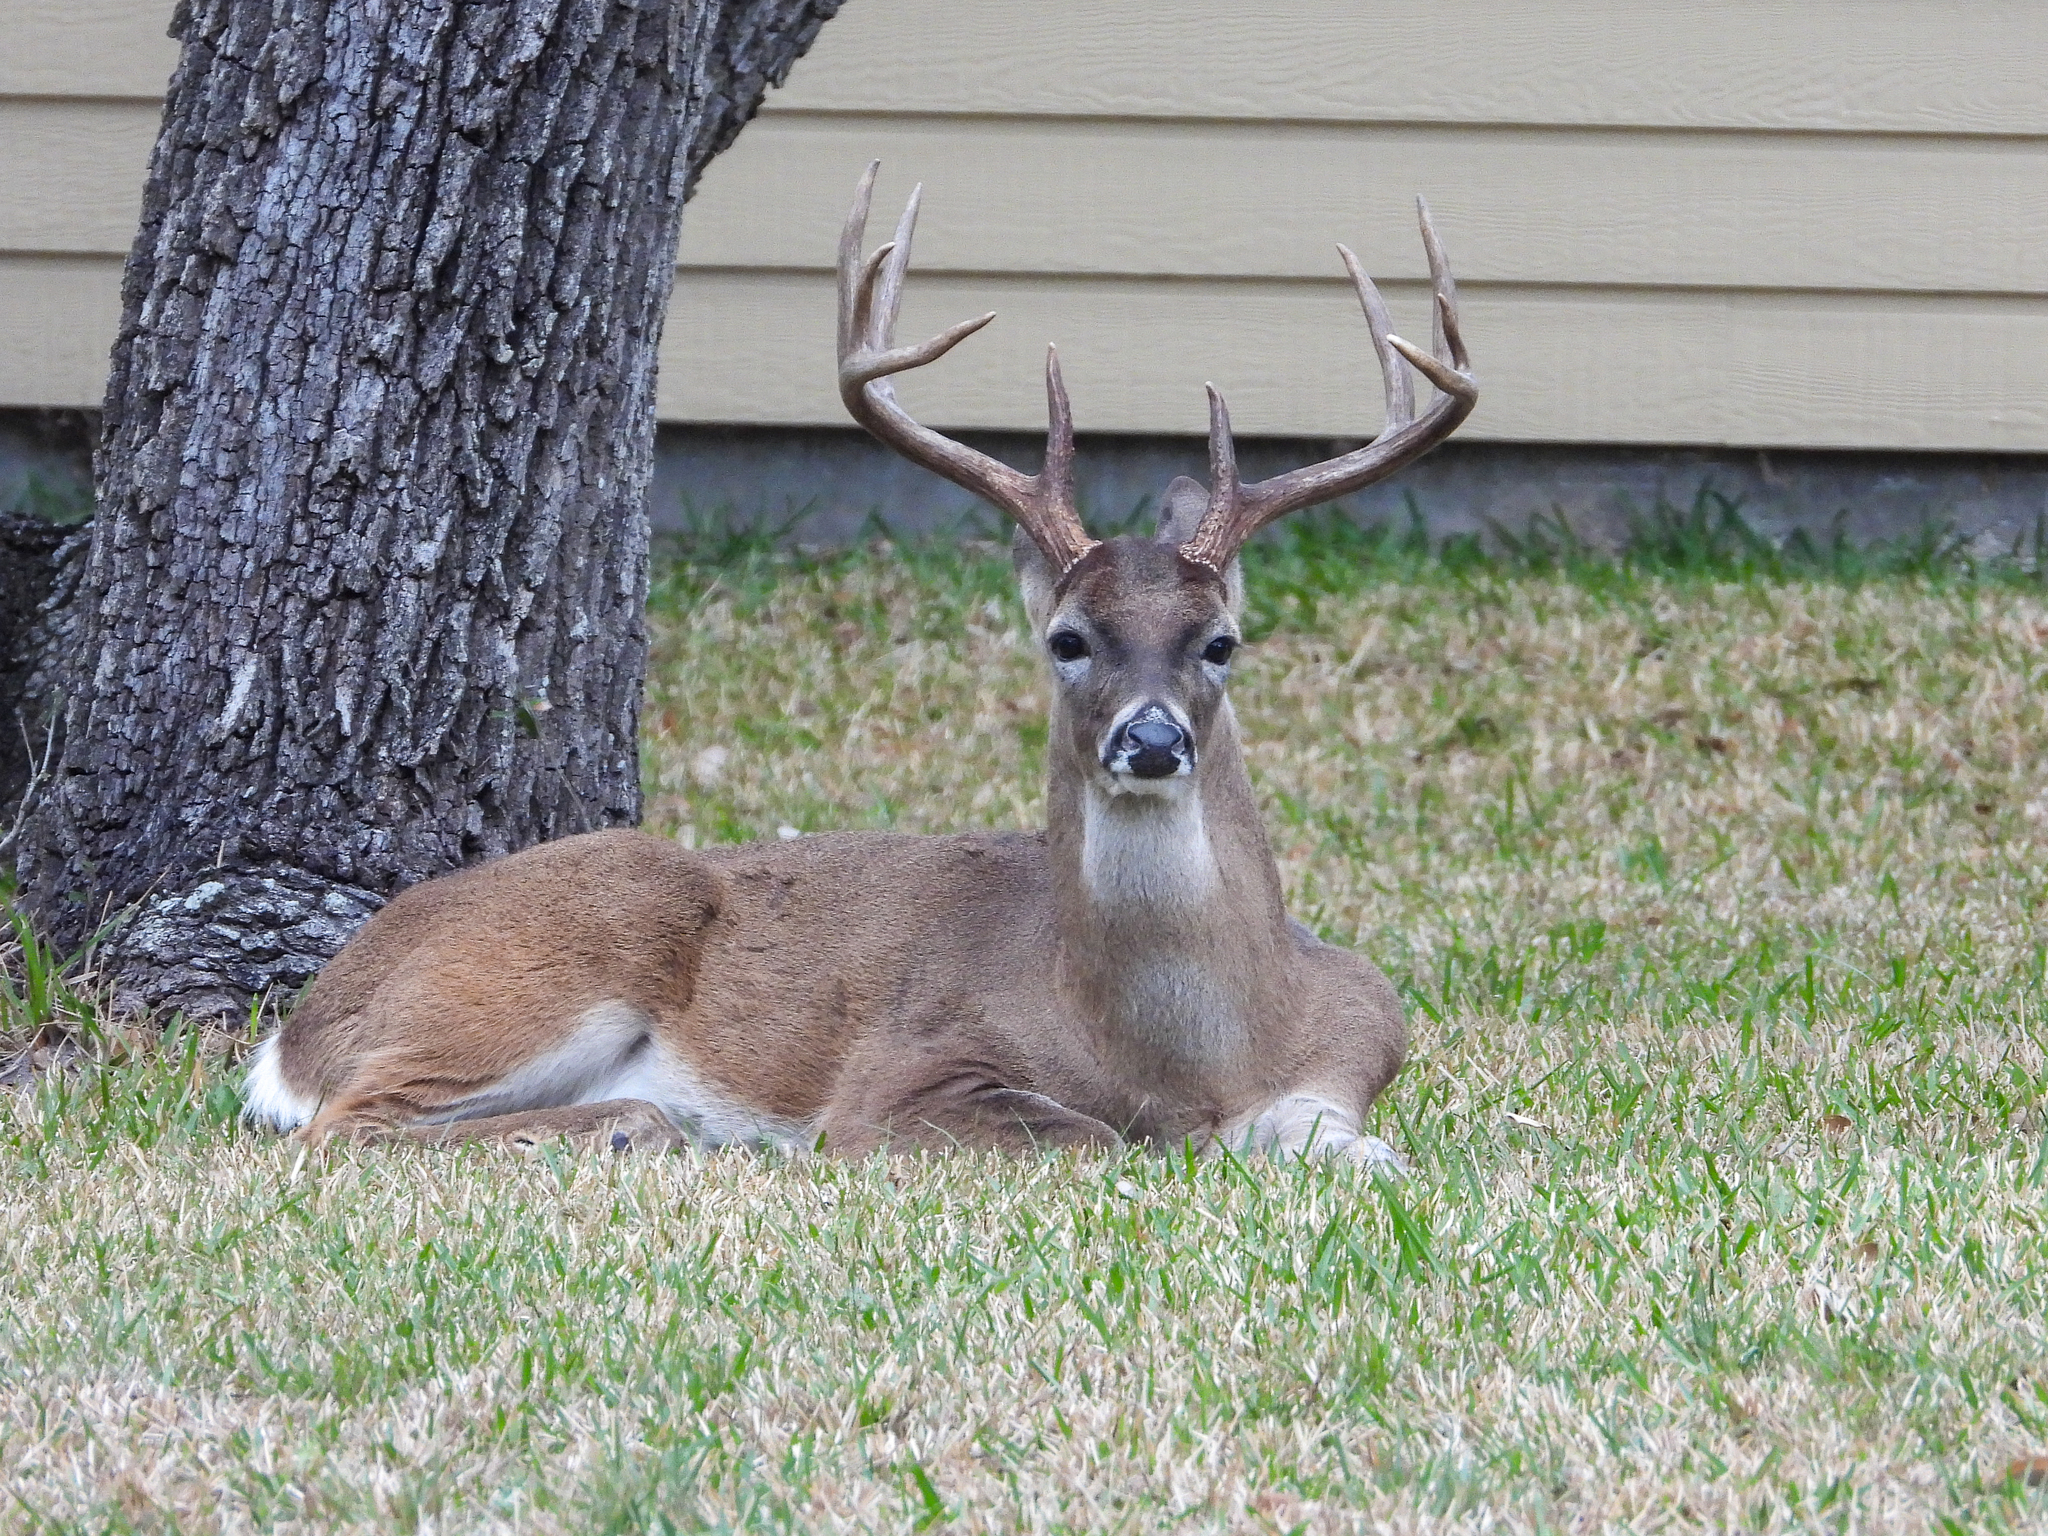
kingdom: Animalia
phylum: Chordata
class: Mammalia
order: Artiodactyla
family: Cervidae
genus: Odocoileus
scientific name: Odocoileus virginianus
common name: White-tailed deer
